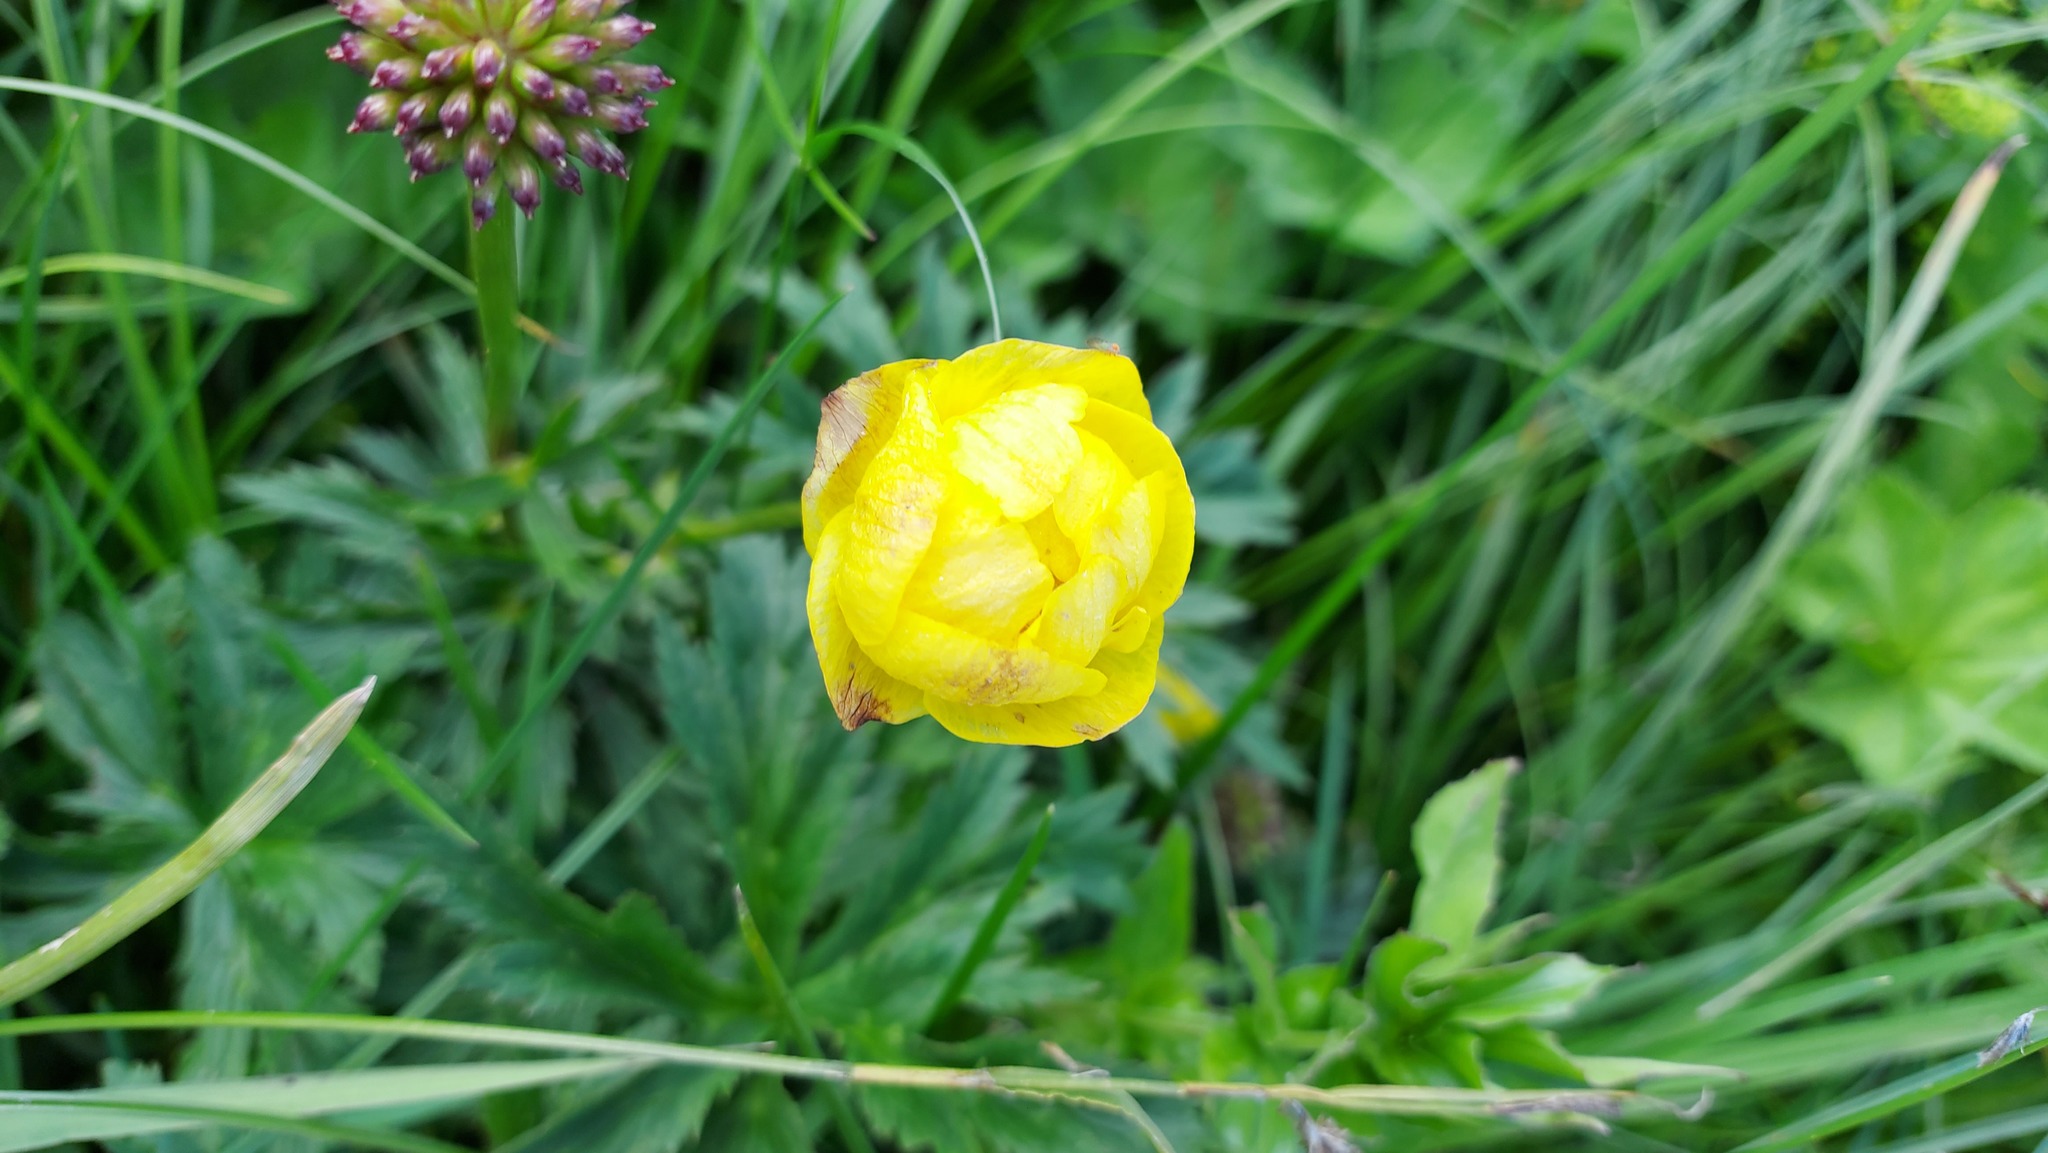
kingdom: Plantae
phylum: Tracheophyta
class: Magnoliopsida
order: Ranunculales
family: Ranunculaceae
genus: Trollius
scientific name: Trollius europaeus
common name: European globeflower
